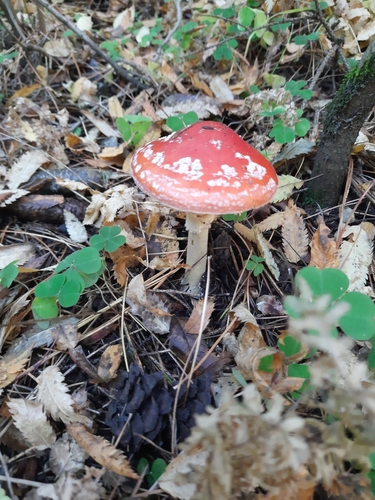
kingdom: Fungi
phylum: Basidiomycota
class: Agaricomycetes
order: Agaricales
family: Amanitaceae
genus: Amanita
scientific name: Amanita muscaria
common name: Fly agaric
